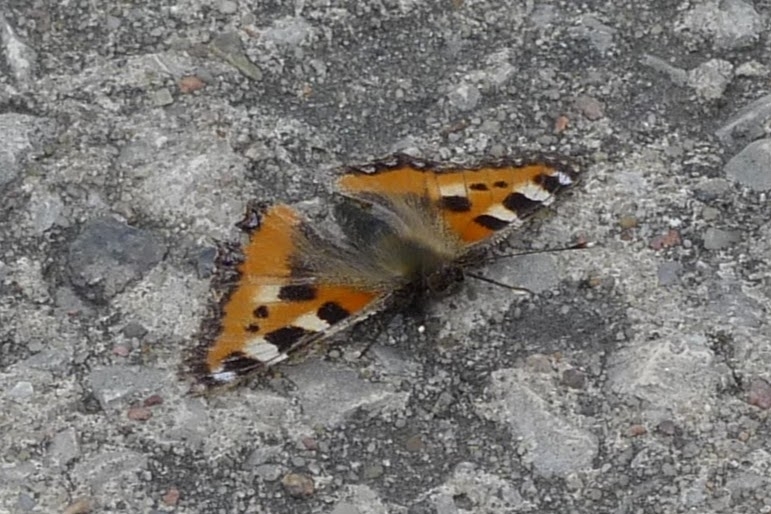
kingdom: Animalia
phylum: Arthropoda
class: Insecta
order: Lepidoptera
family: Nymphalidae
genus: Aglais
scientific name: Aglais urticae
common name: Small tortoiseshell
